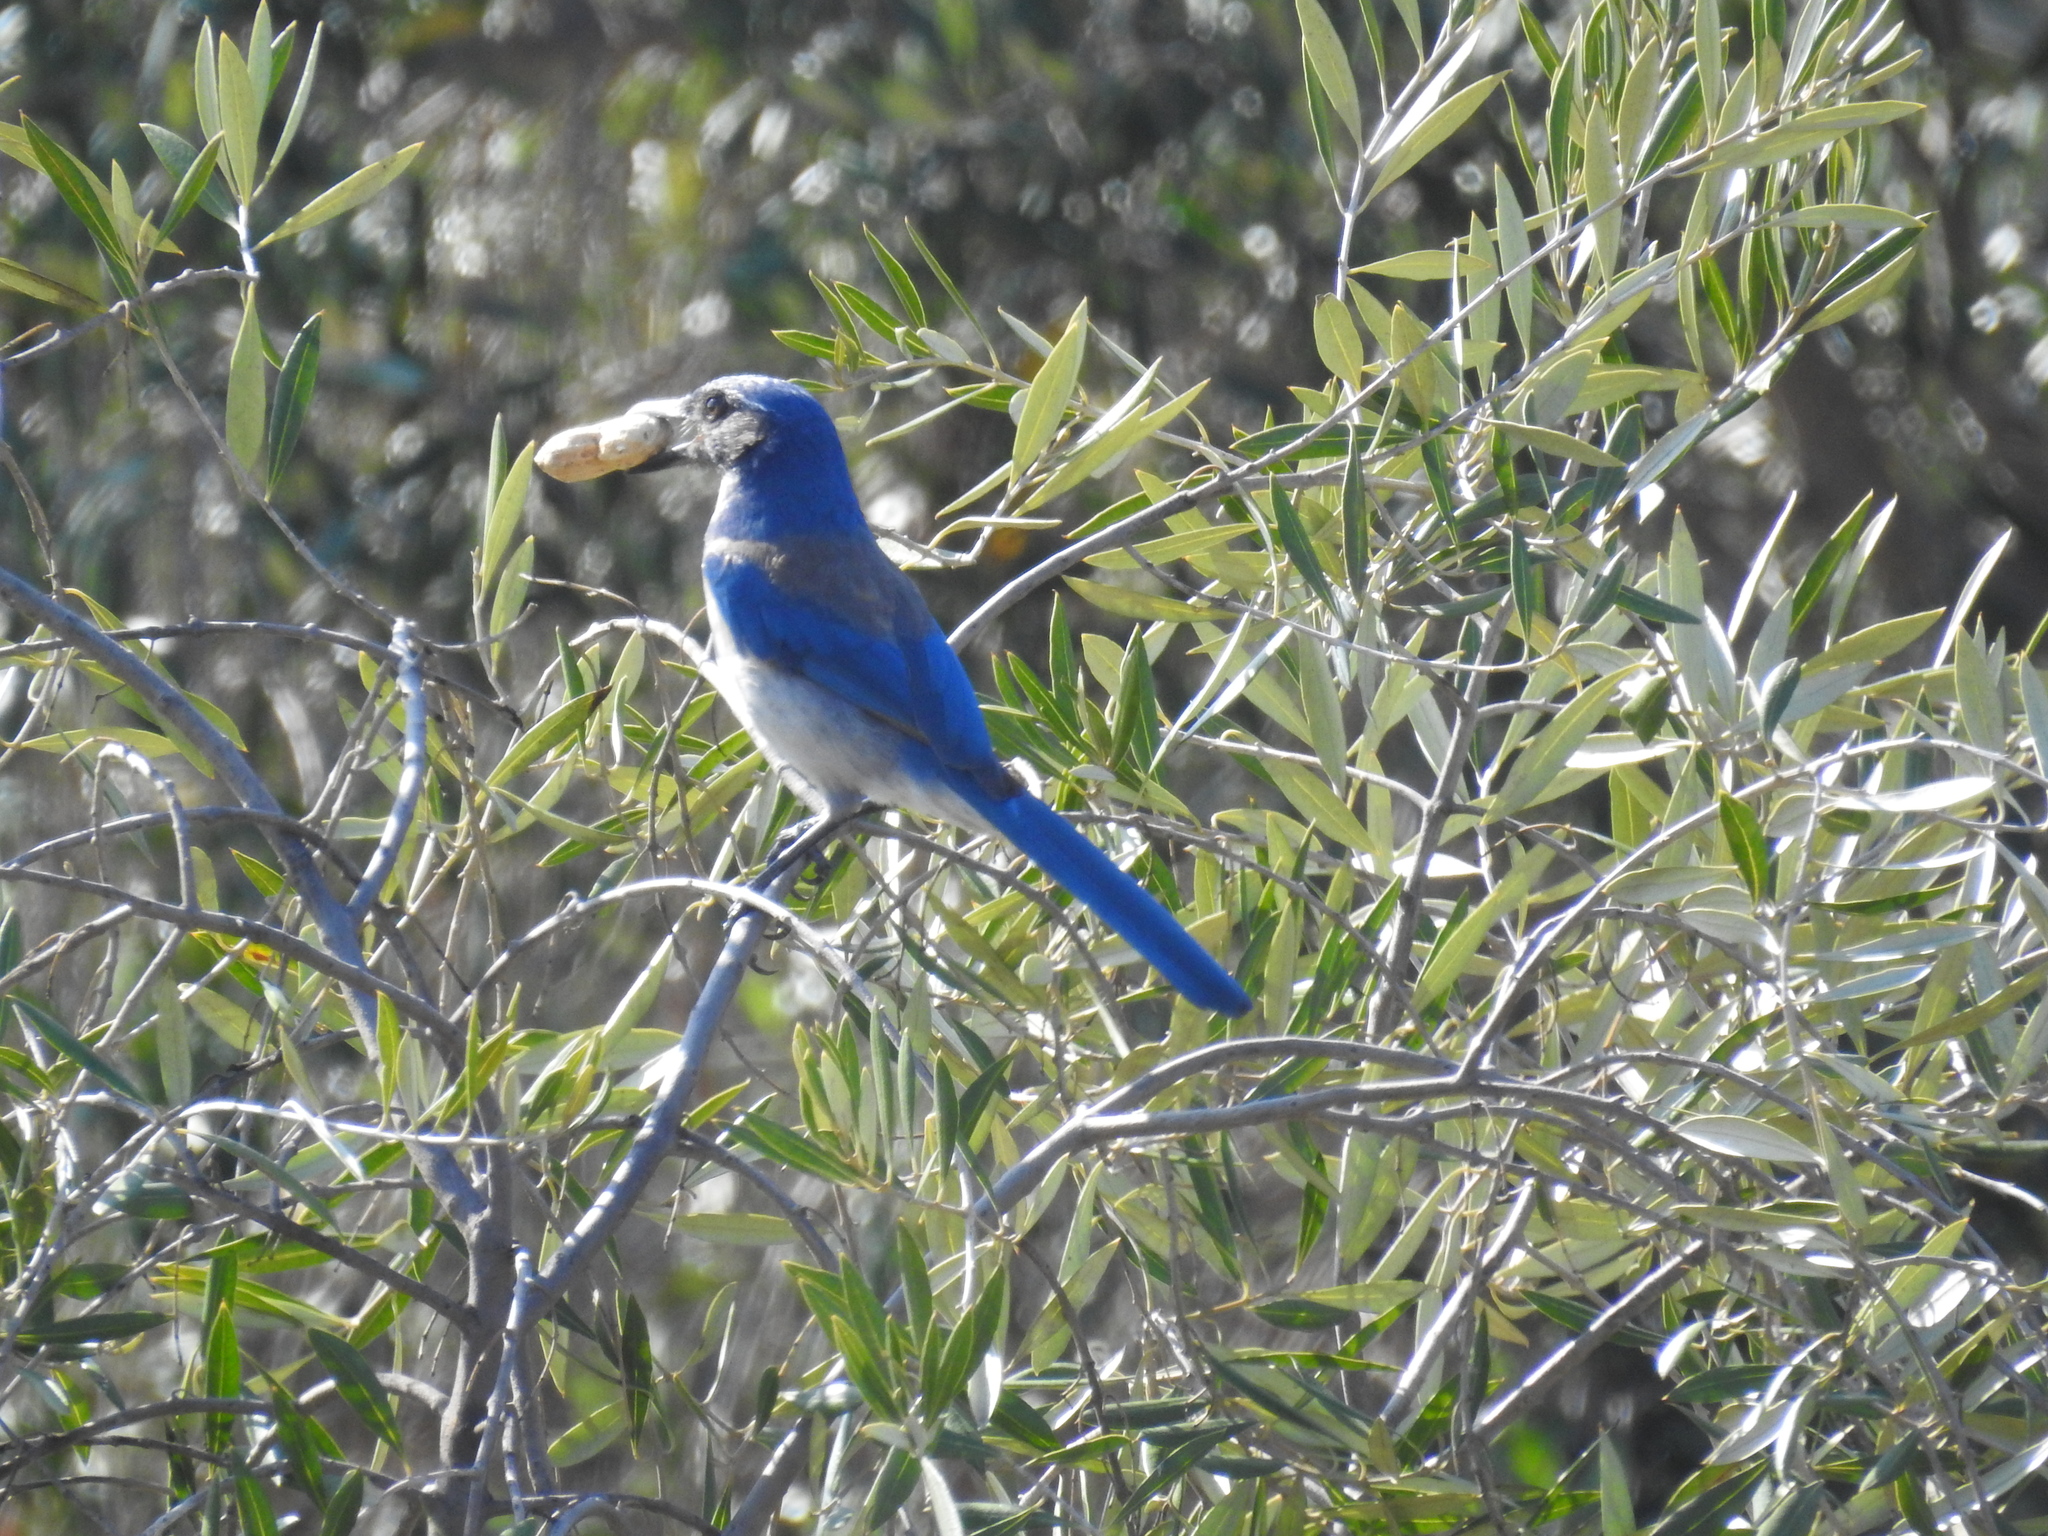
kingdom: Animalia
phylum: Chordata
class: Aves
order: Passeriformes
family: Corvidae
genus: Aphelocoma
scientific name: Aphelocoma californica
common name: California scrub-jay
